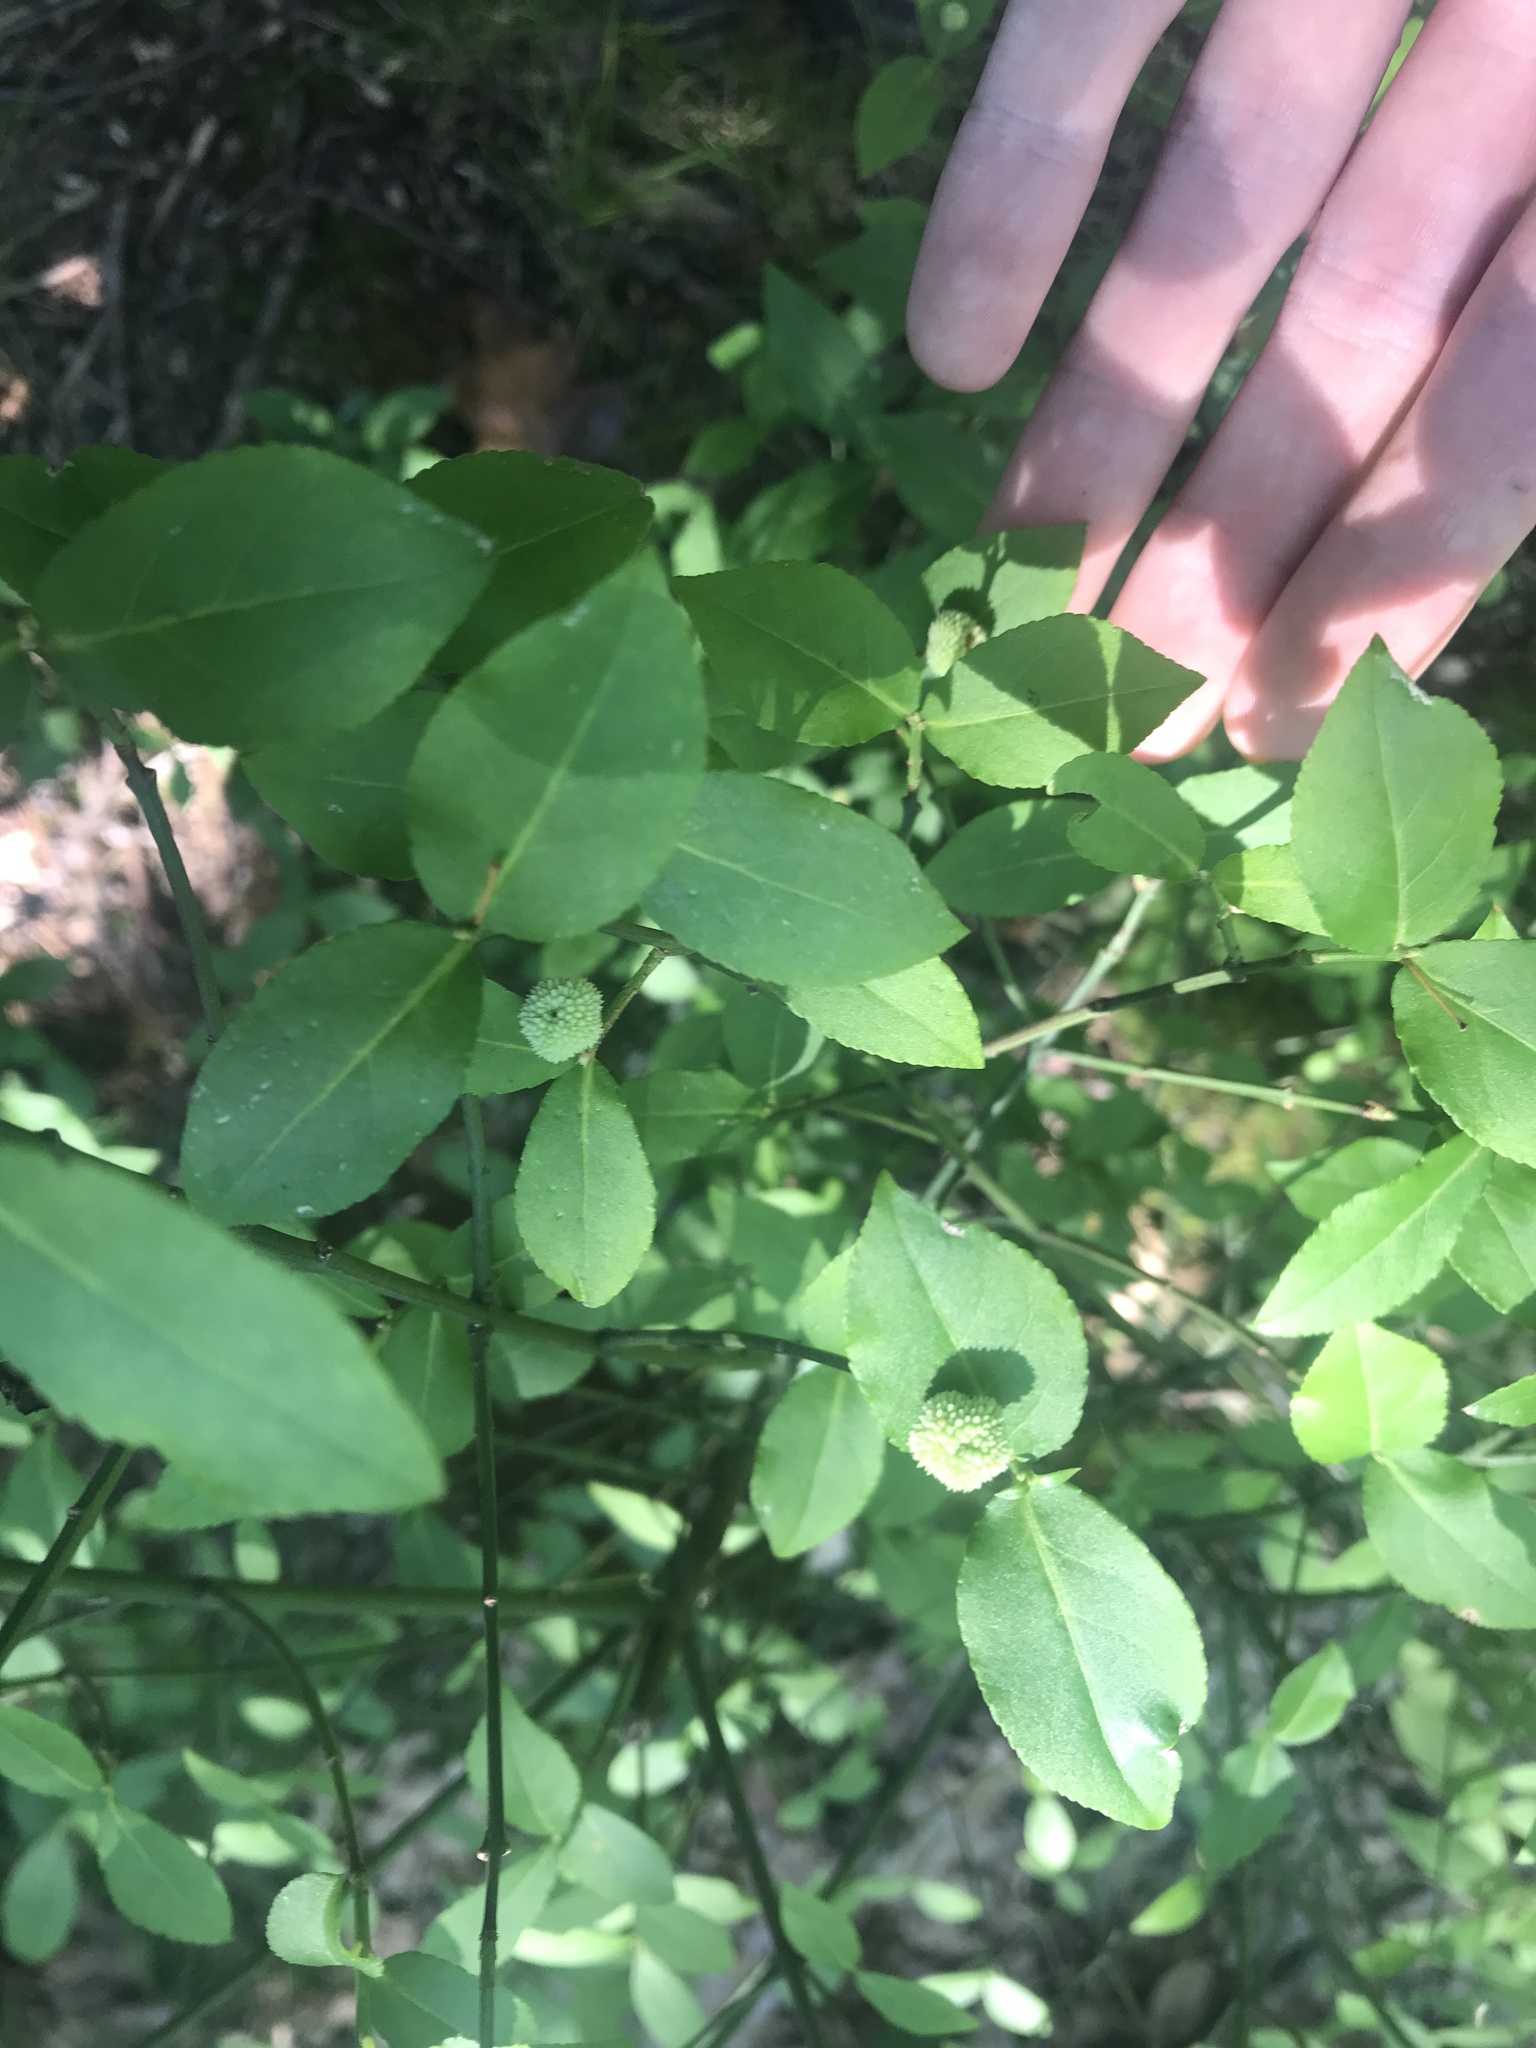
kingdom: Plantae
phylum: Tracheophyta
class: Magnoliopsida
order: Celastrales
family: Celastraceae
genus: Euonymus
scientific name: Euonymus americanus
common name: Bursting-heart
